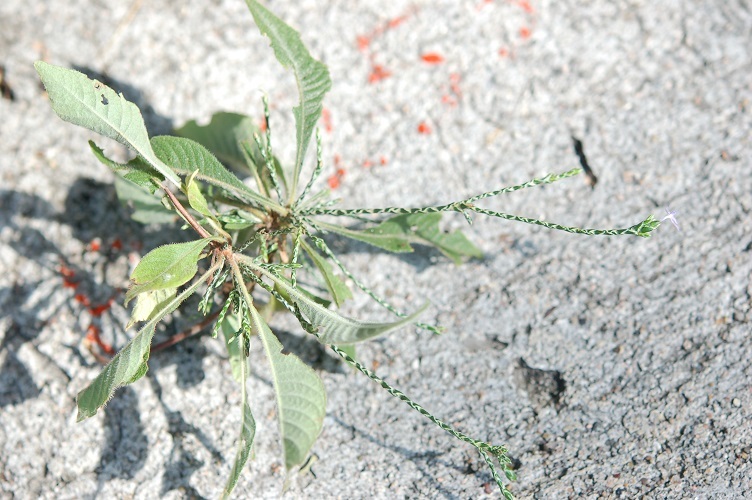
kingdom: Plantae
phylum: Tracheophyta
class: Magnoliopsida
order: Lamiales
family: Acanthaceae
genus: Elytraria
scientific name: Elytraria imbricata
